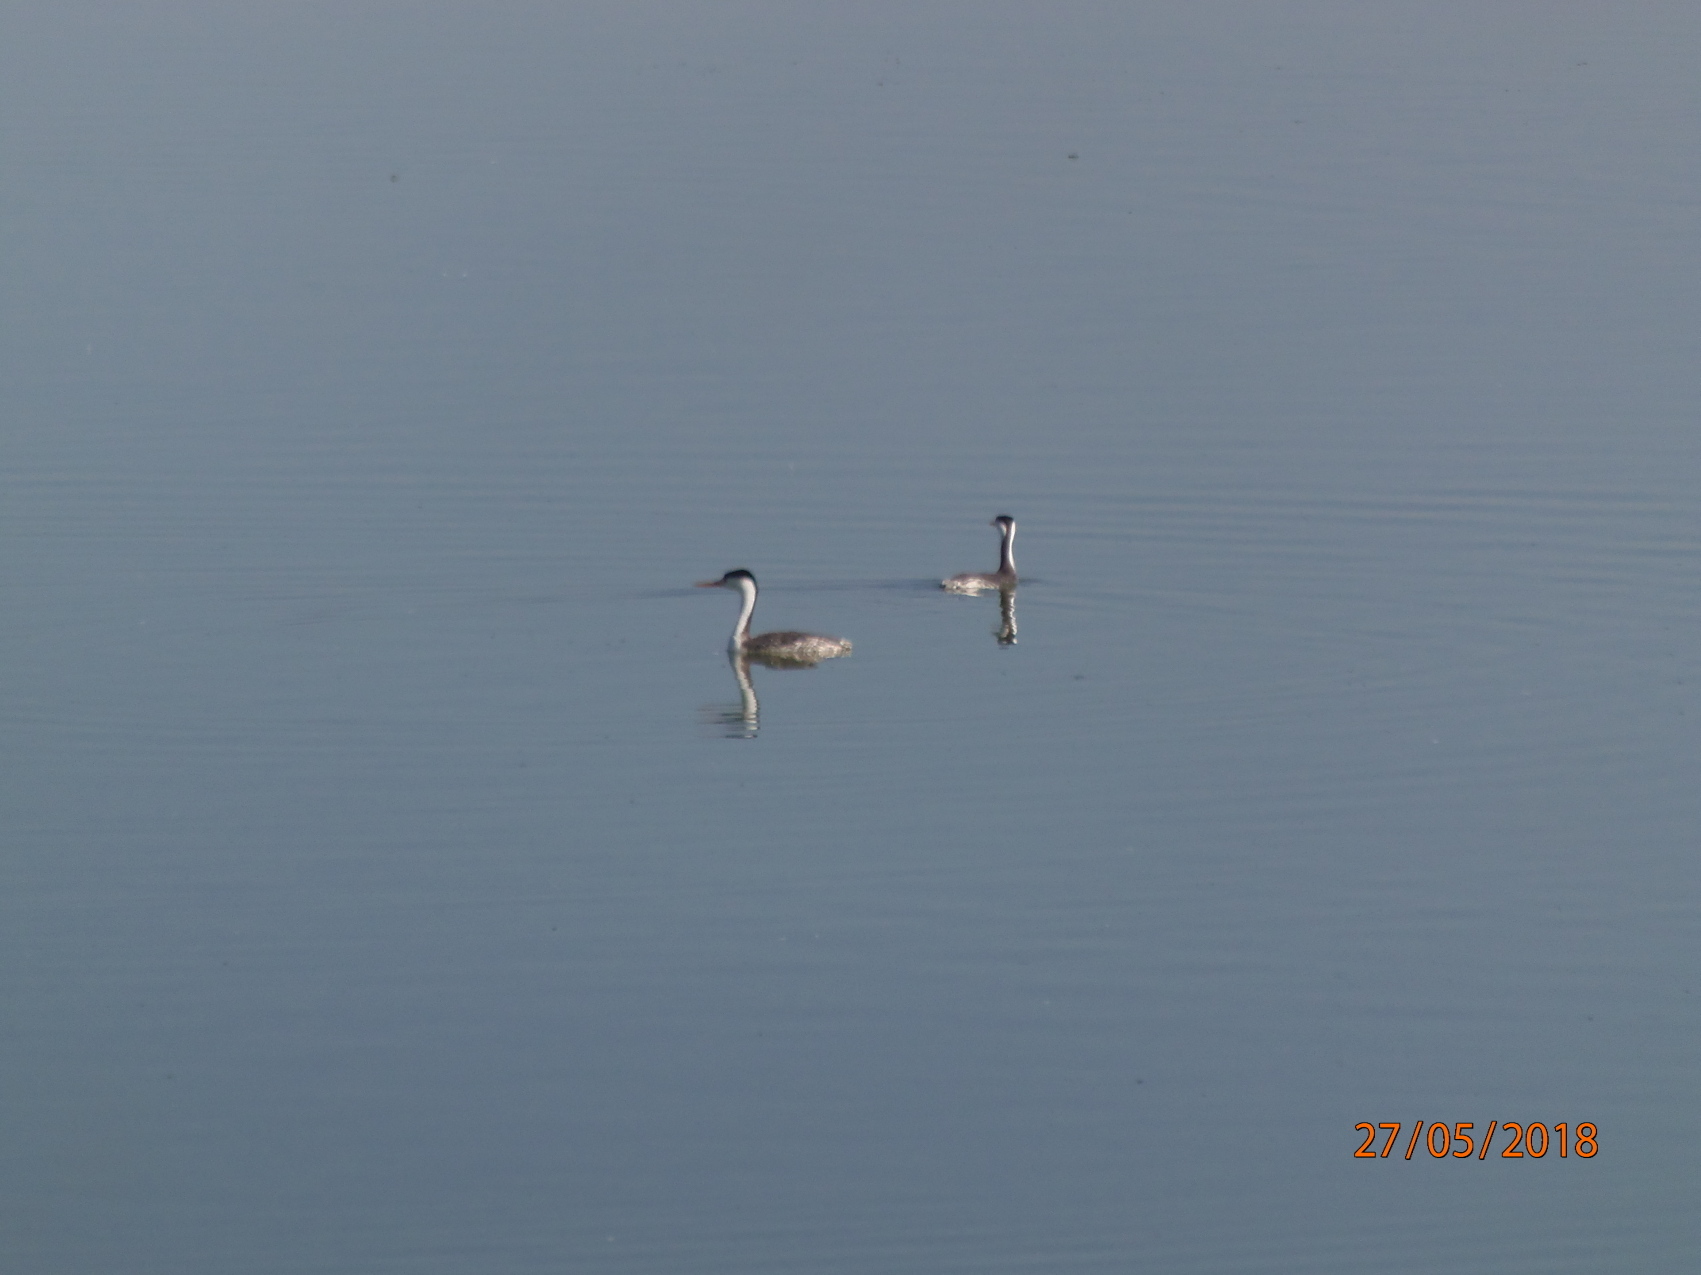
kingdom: Animalia
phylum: Chordata
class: Aves
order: Podicipediformes
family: Podicipedidae
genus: Aechmophorus
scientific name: Aechmophorus clarkii
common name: Clark's grebe
